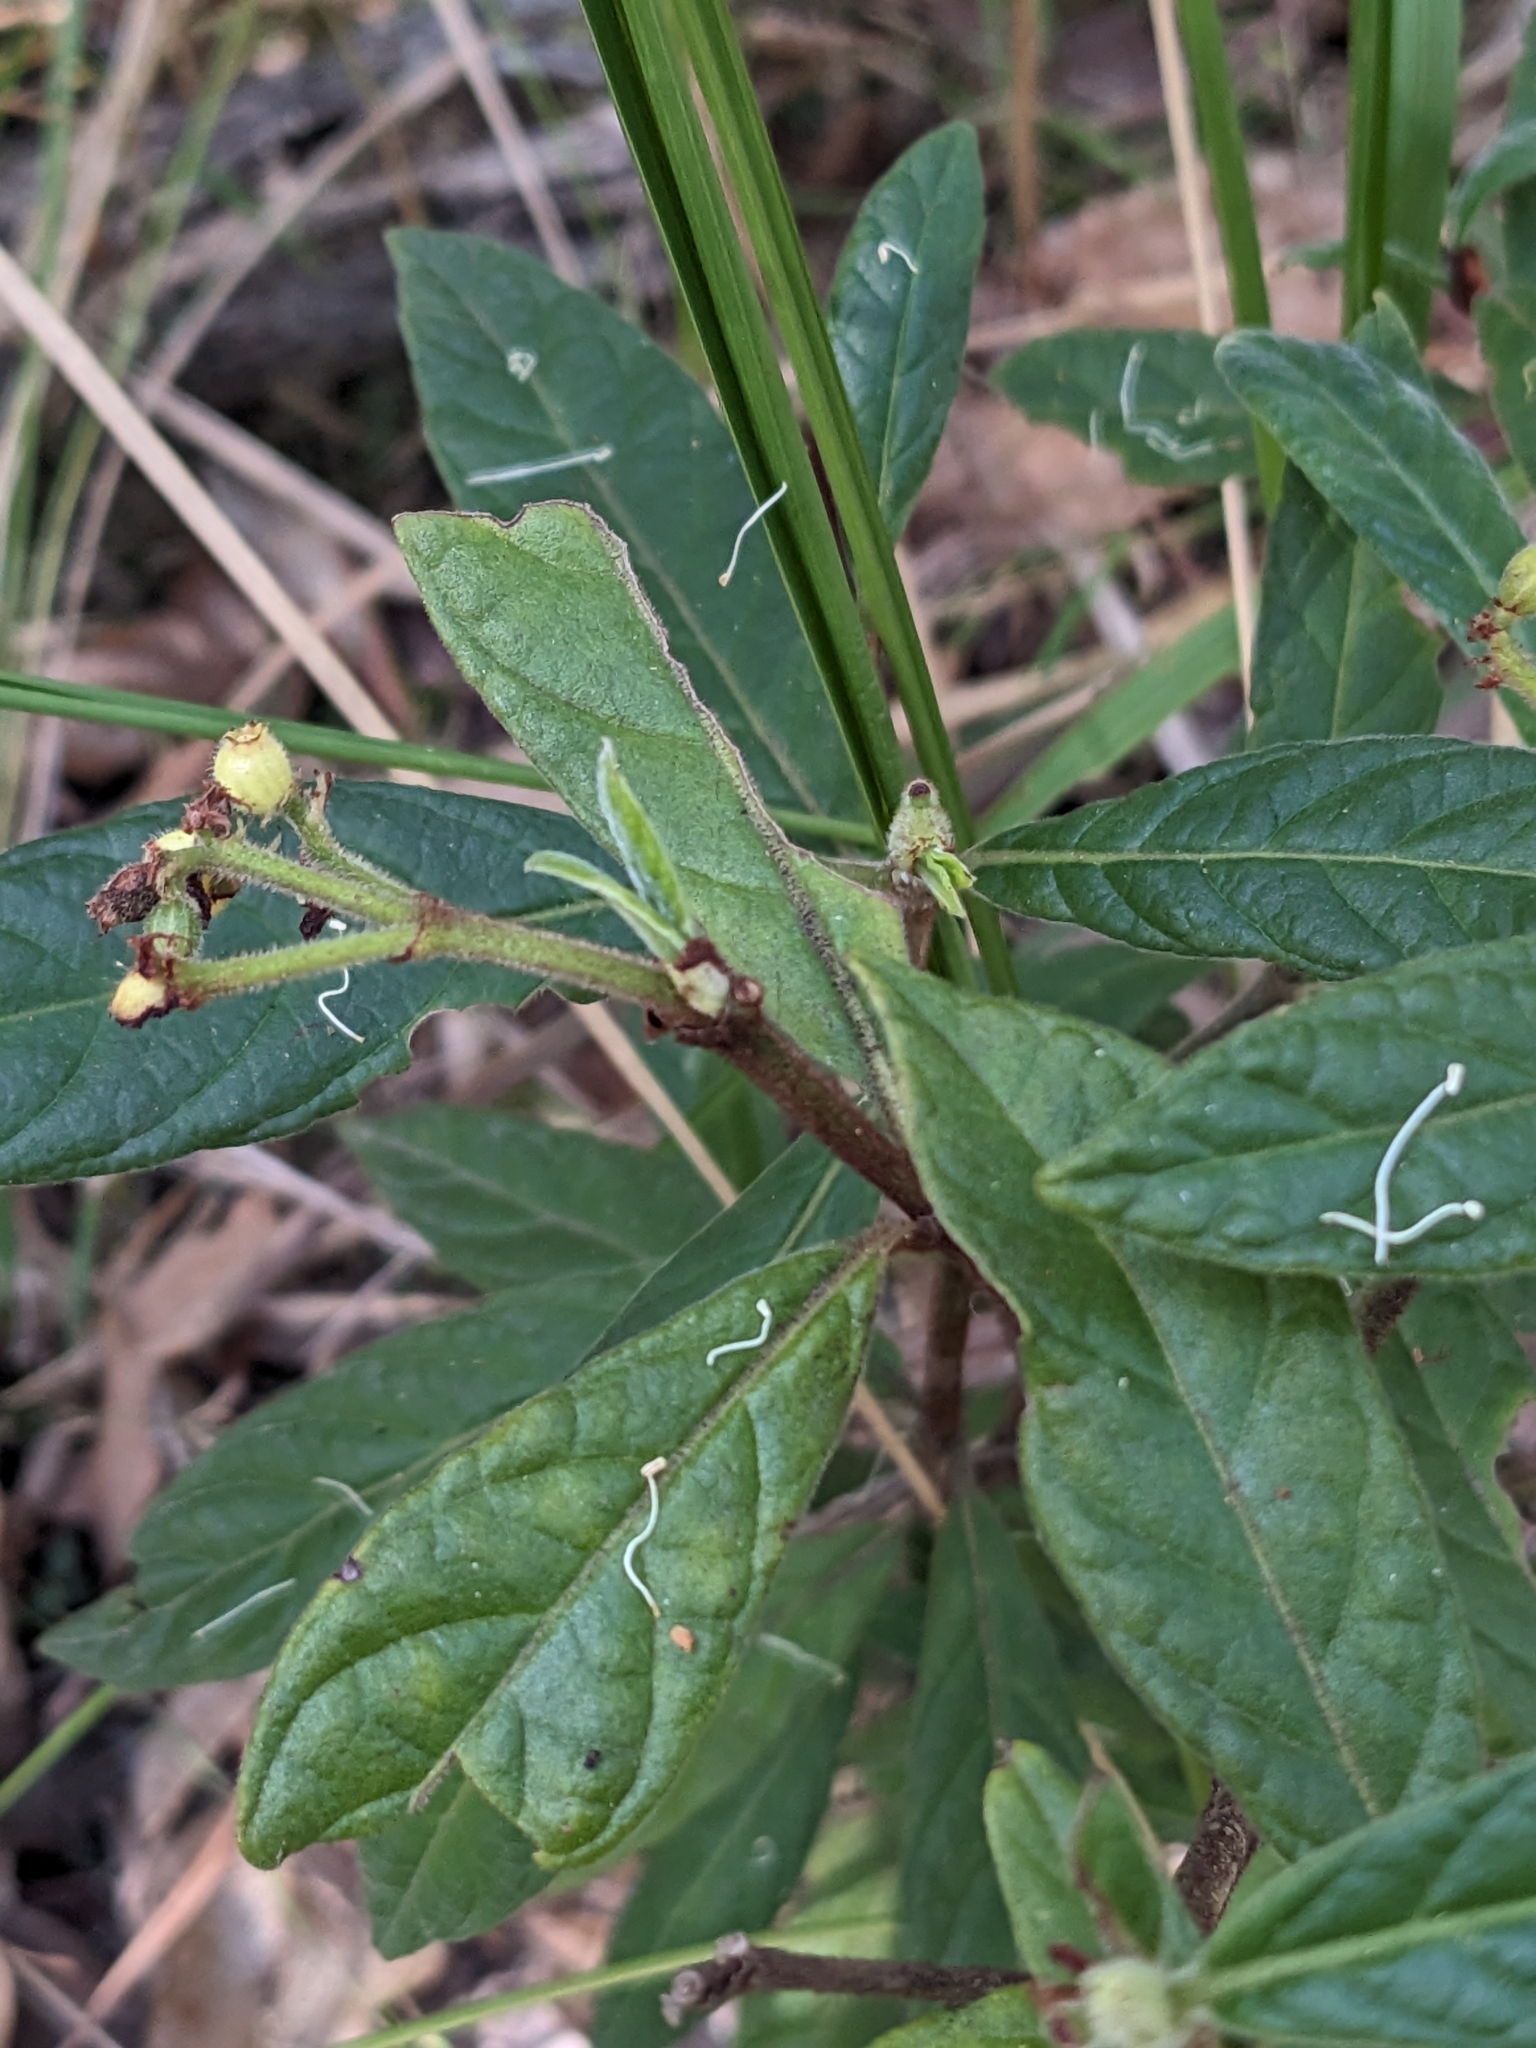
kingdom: Plantae
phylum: Tracheophyta
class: Magnoliopsida
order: Gentianales
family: Rubiaceae
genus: Psychotria
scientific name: Psychotria loniceroides
